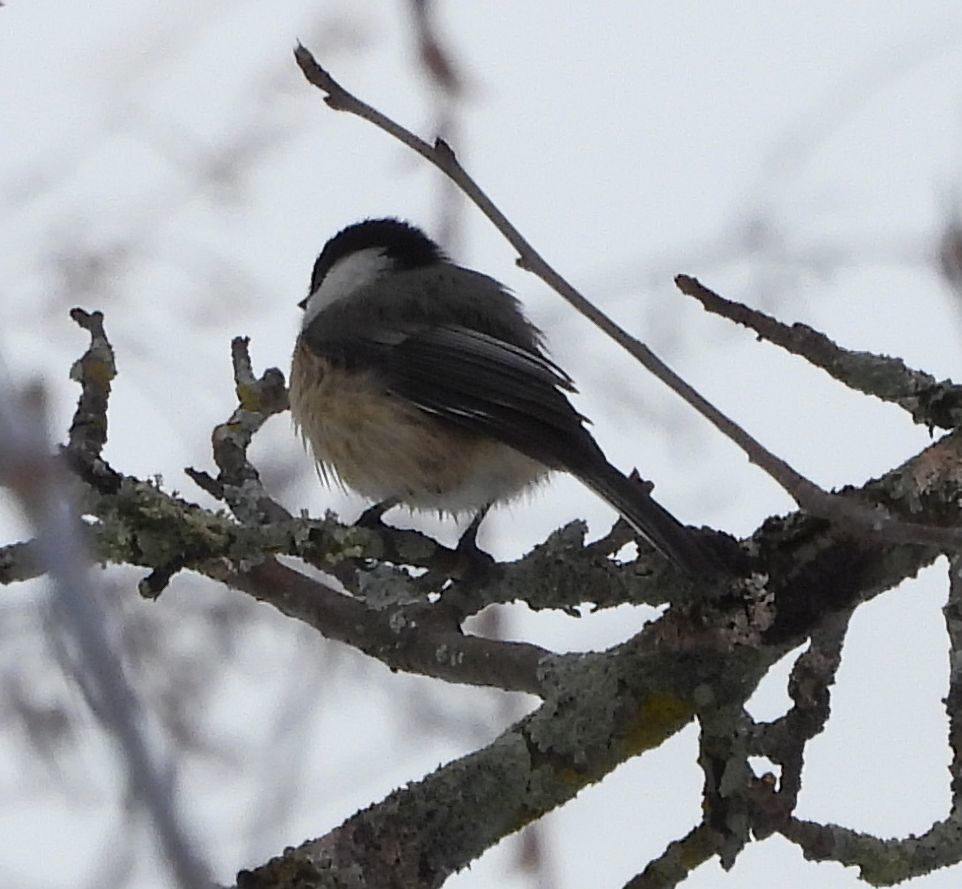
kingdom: Animalia
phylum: Chordata
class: Aves
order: Passeriformes
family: Paridae
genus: Poecile
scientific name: Poecile atricapillus
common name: Black-capped chickadee
